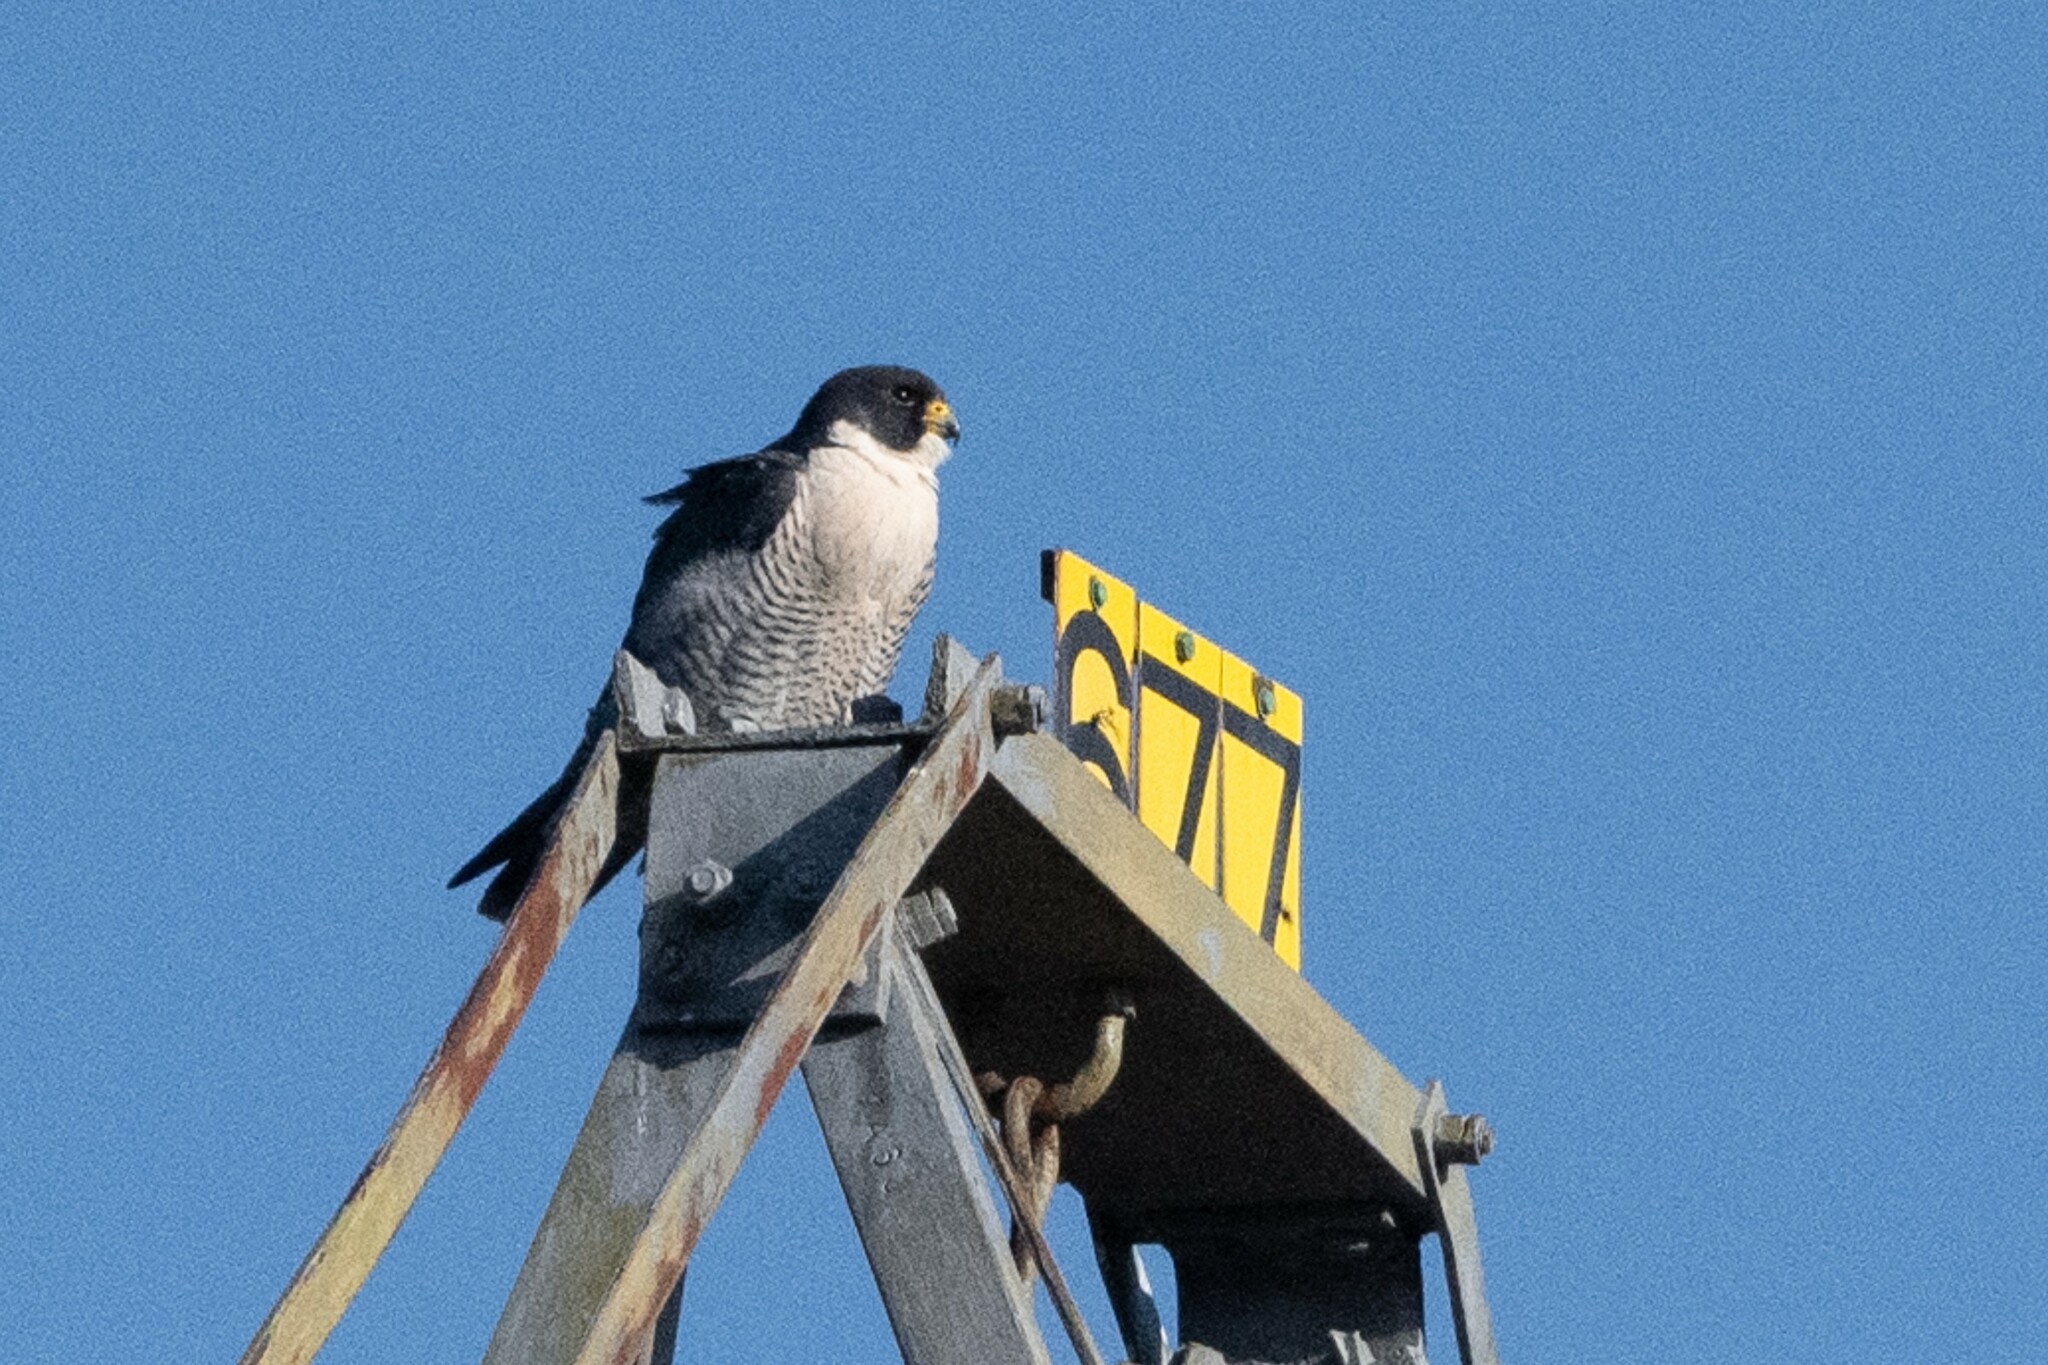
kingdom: Animalia
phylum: Chordata
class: Aves
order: Falconiformes
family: Falconidae
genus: Falco
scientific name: Falco peregrinus
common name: Peregrine falcon
